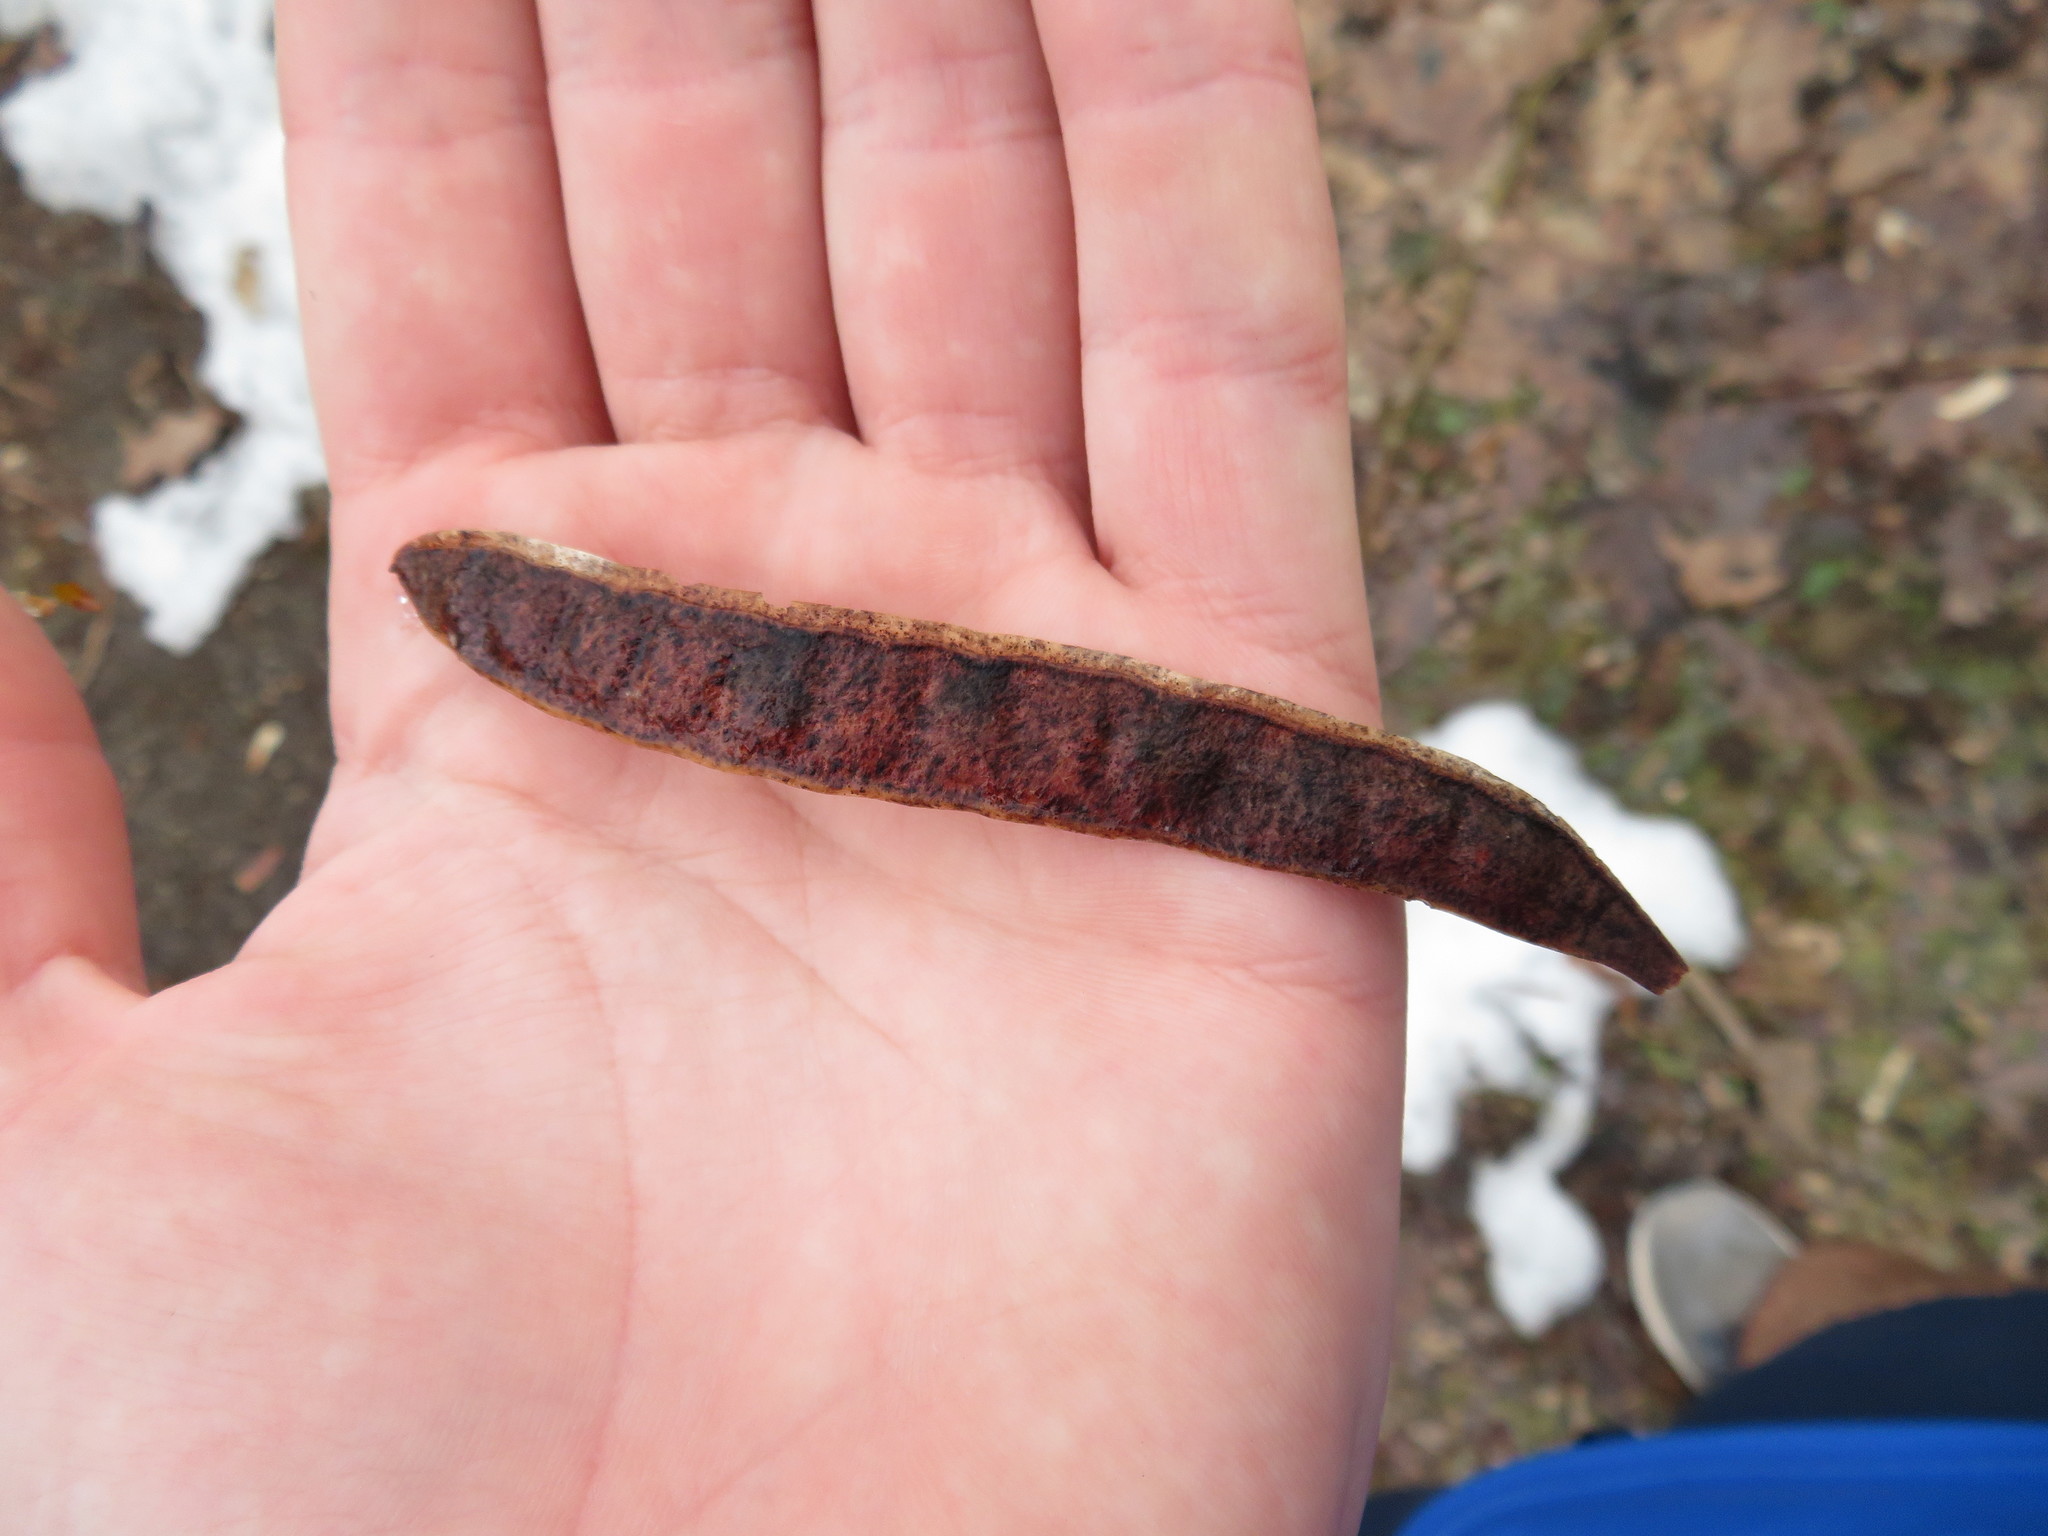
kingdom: Plantae
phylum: Tracheophyta
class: Magnoliopsida
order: Fabales
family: Fabaceae
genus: Robinia
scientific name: Robinia pseudoacacia
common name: Black locust
